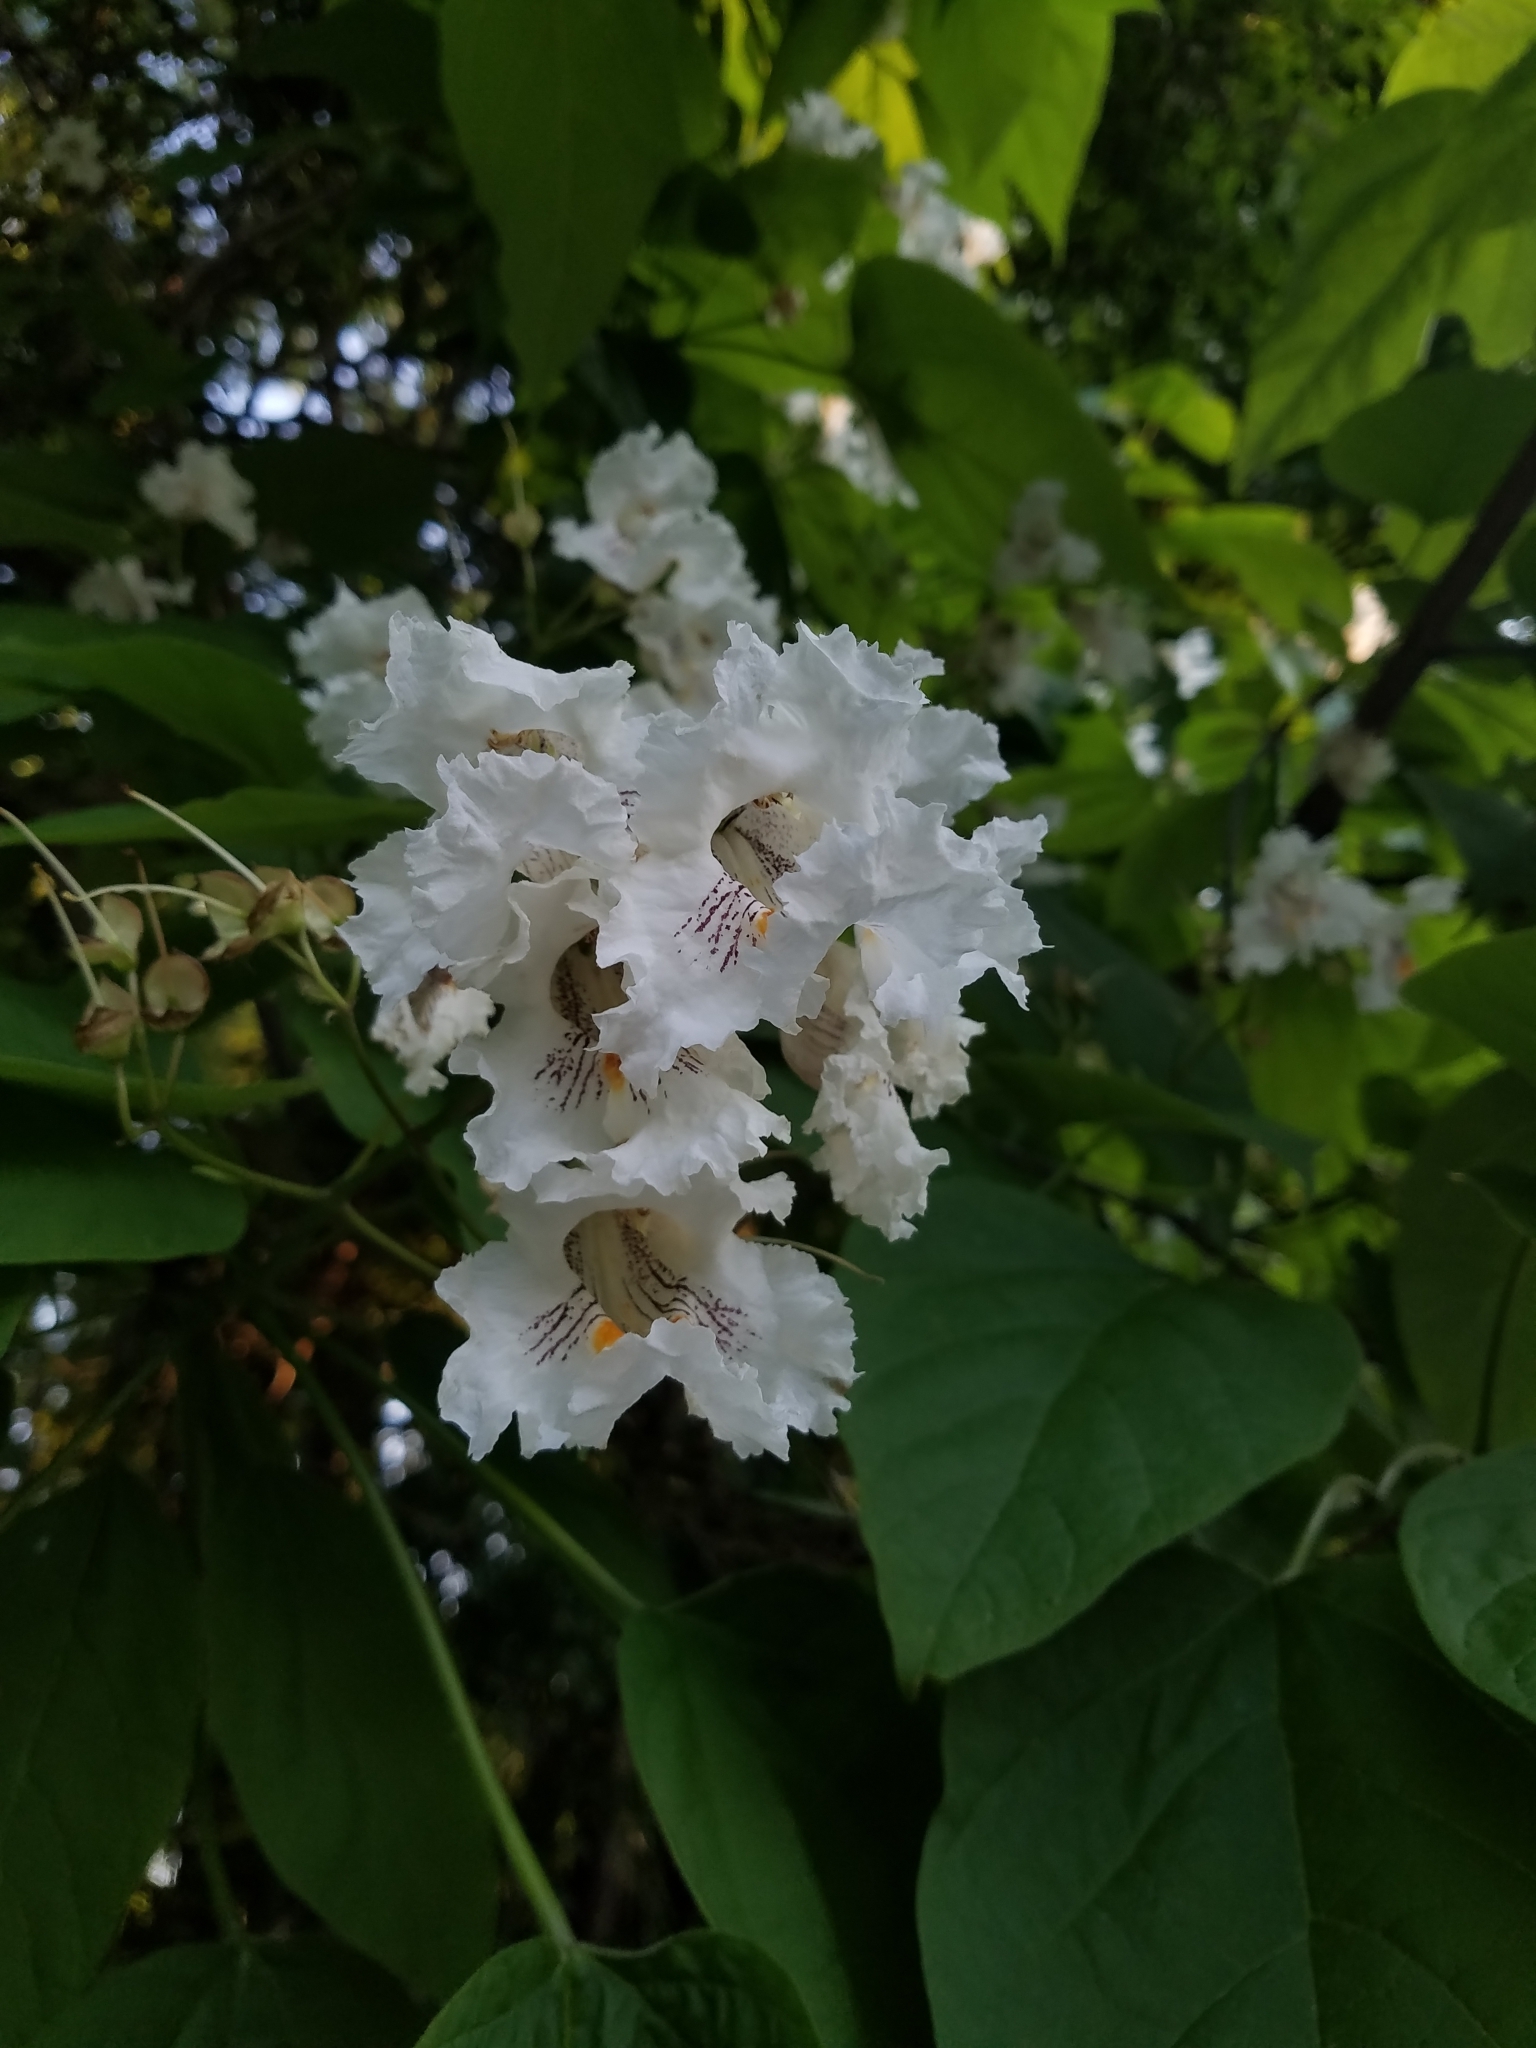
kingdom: Plantae
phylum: Tracheophyta
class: Magnoliopsida
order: Lamiales
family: Bignoniaceae
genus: Catalpa
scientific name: Catalpa speciosa
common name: Northern catalpa
